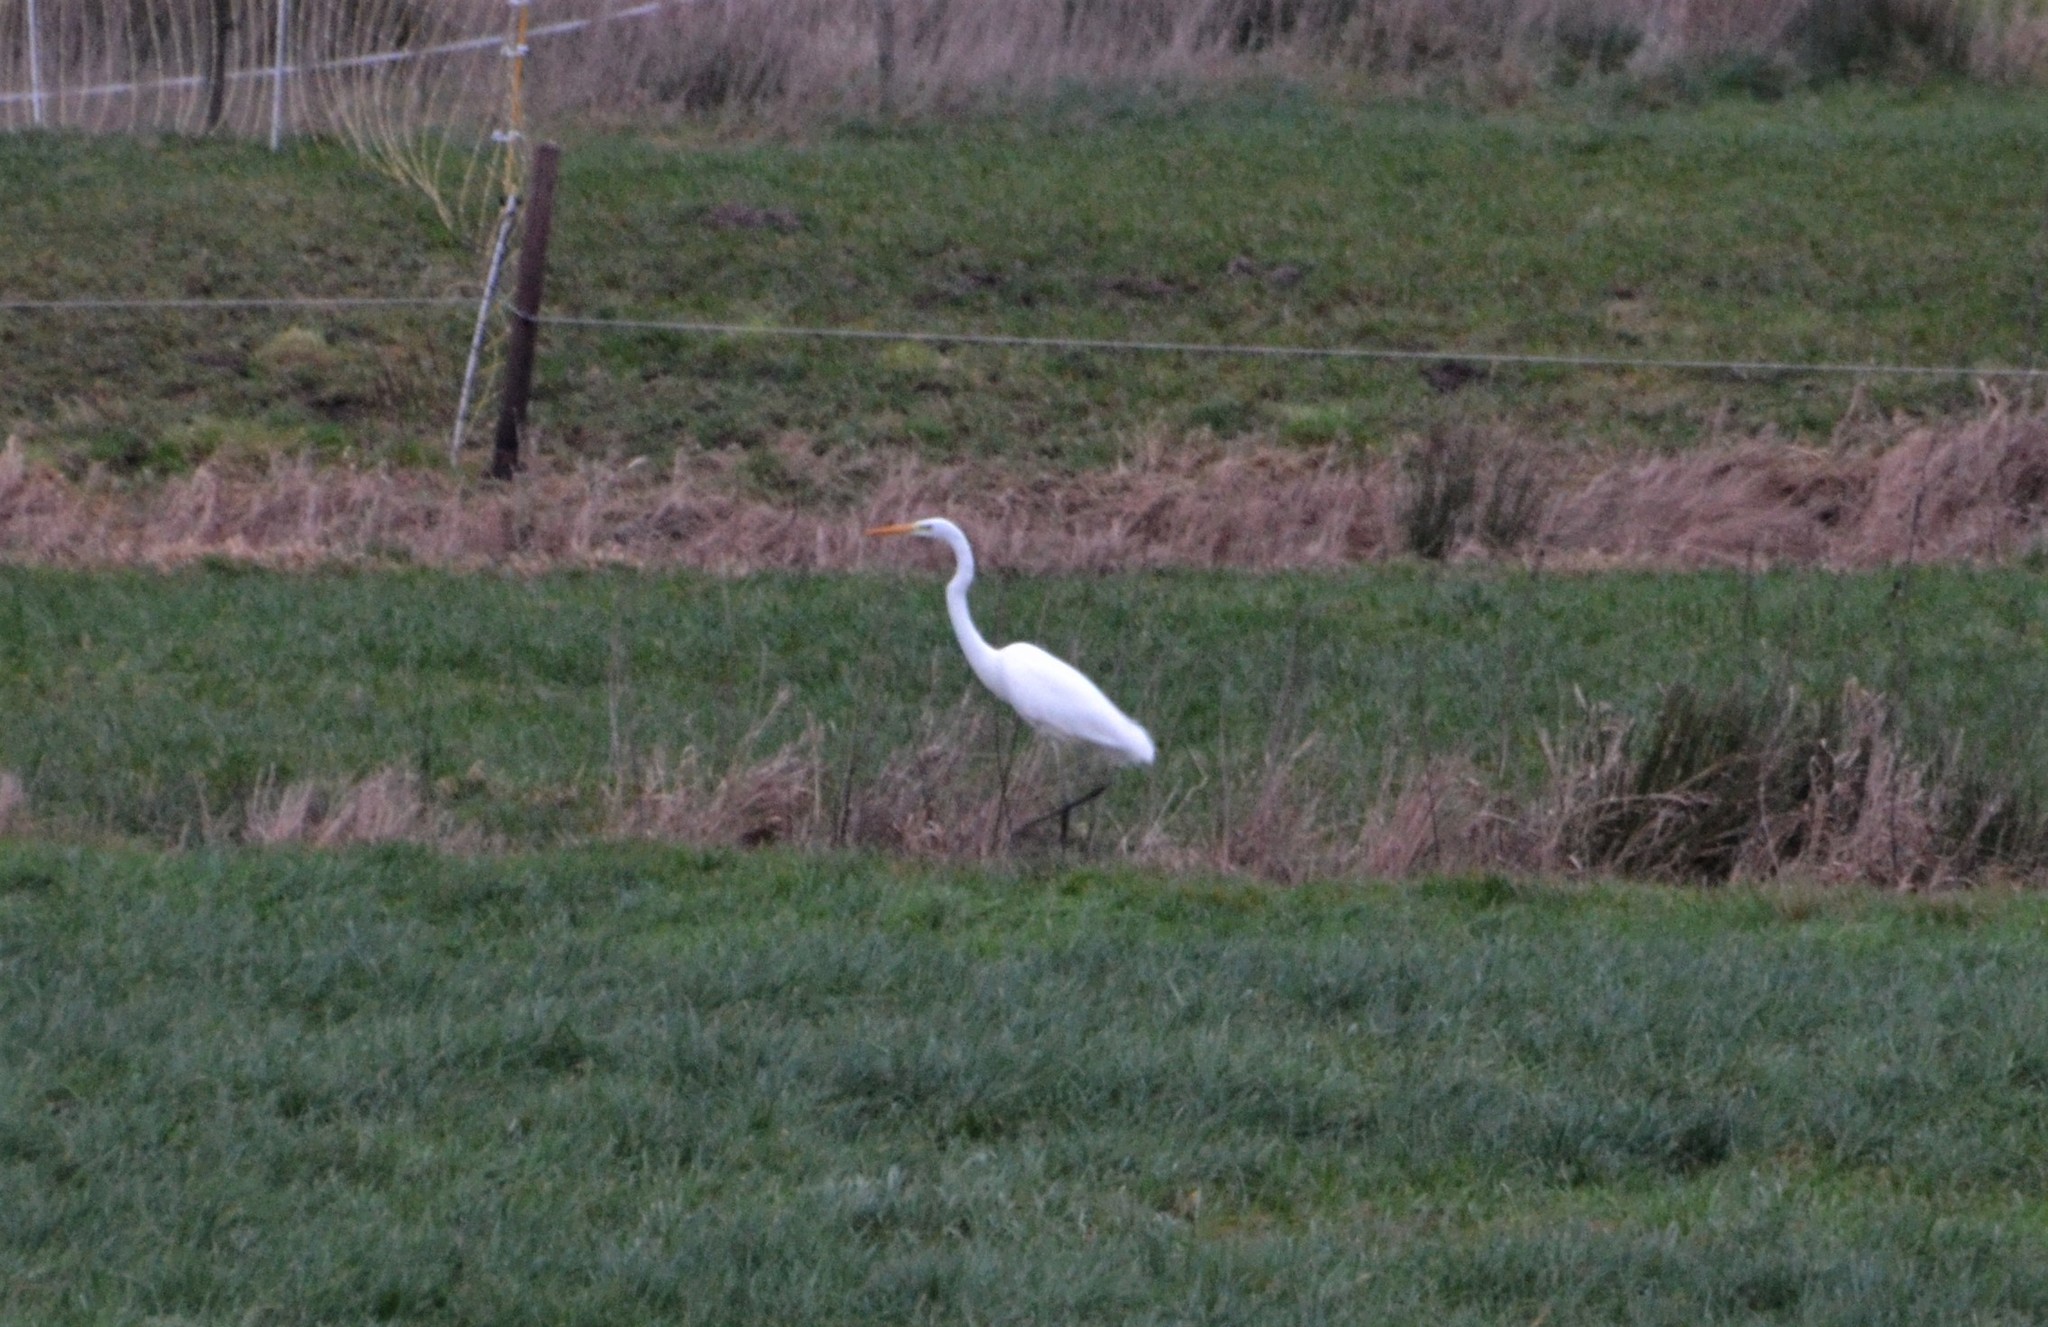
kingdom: Animalia
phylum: Chordata
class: Aves
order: Pelecaniformes
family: Ardeidae
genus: Ardea
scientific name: Ardea alba
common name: Great egret
